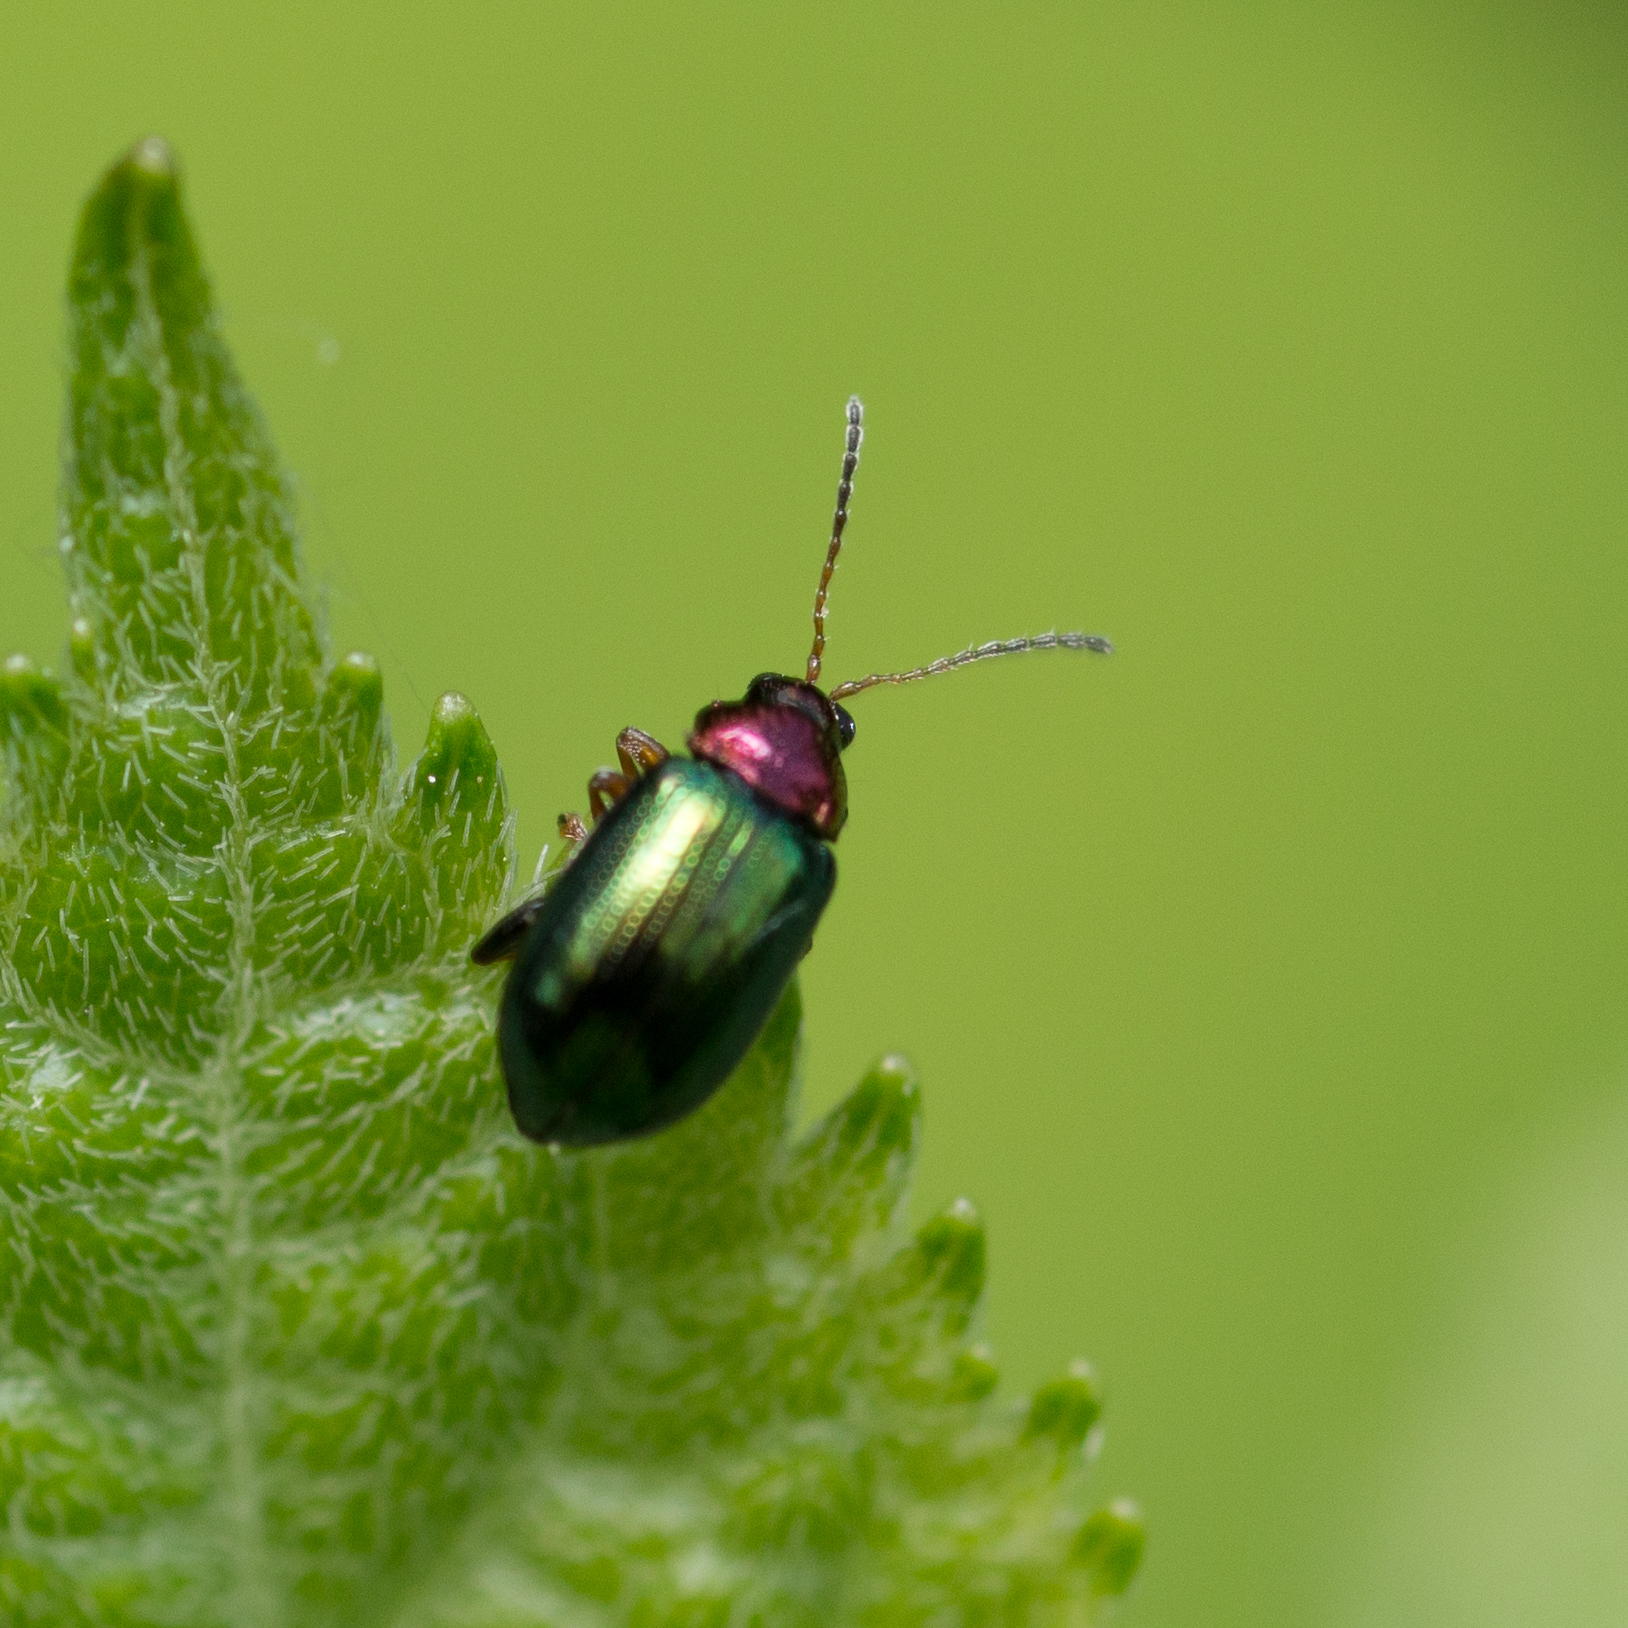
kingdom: Animalia
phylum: Arthropoda
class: Insecta
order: Coleoptera
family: Chrysomelidae
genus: Crepidodera
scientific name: Crepidodera aurata
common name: Willow flea beetle
